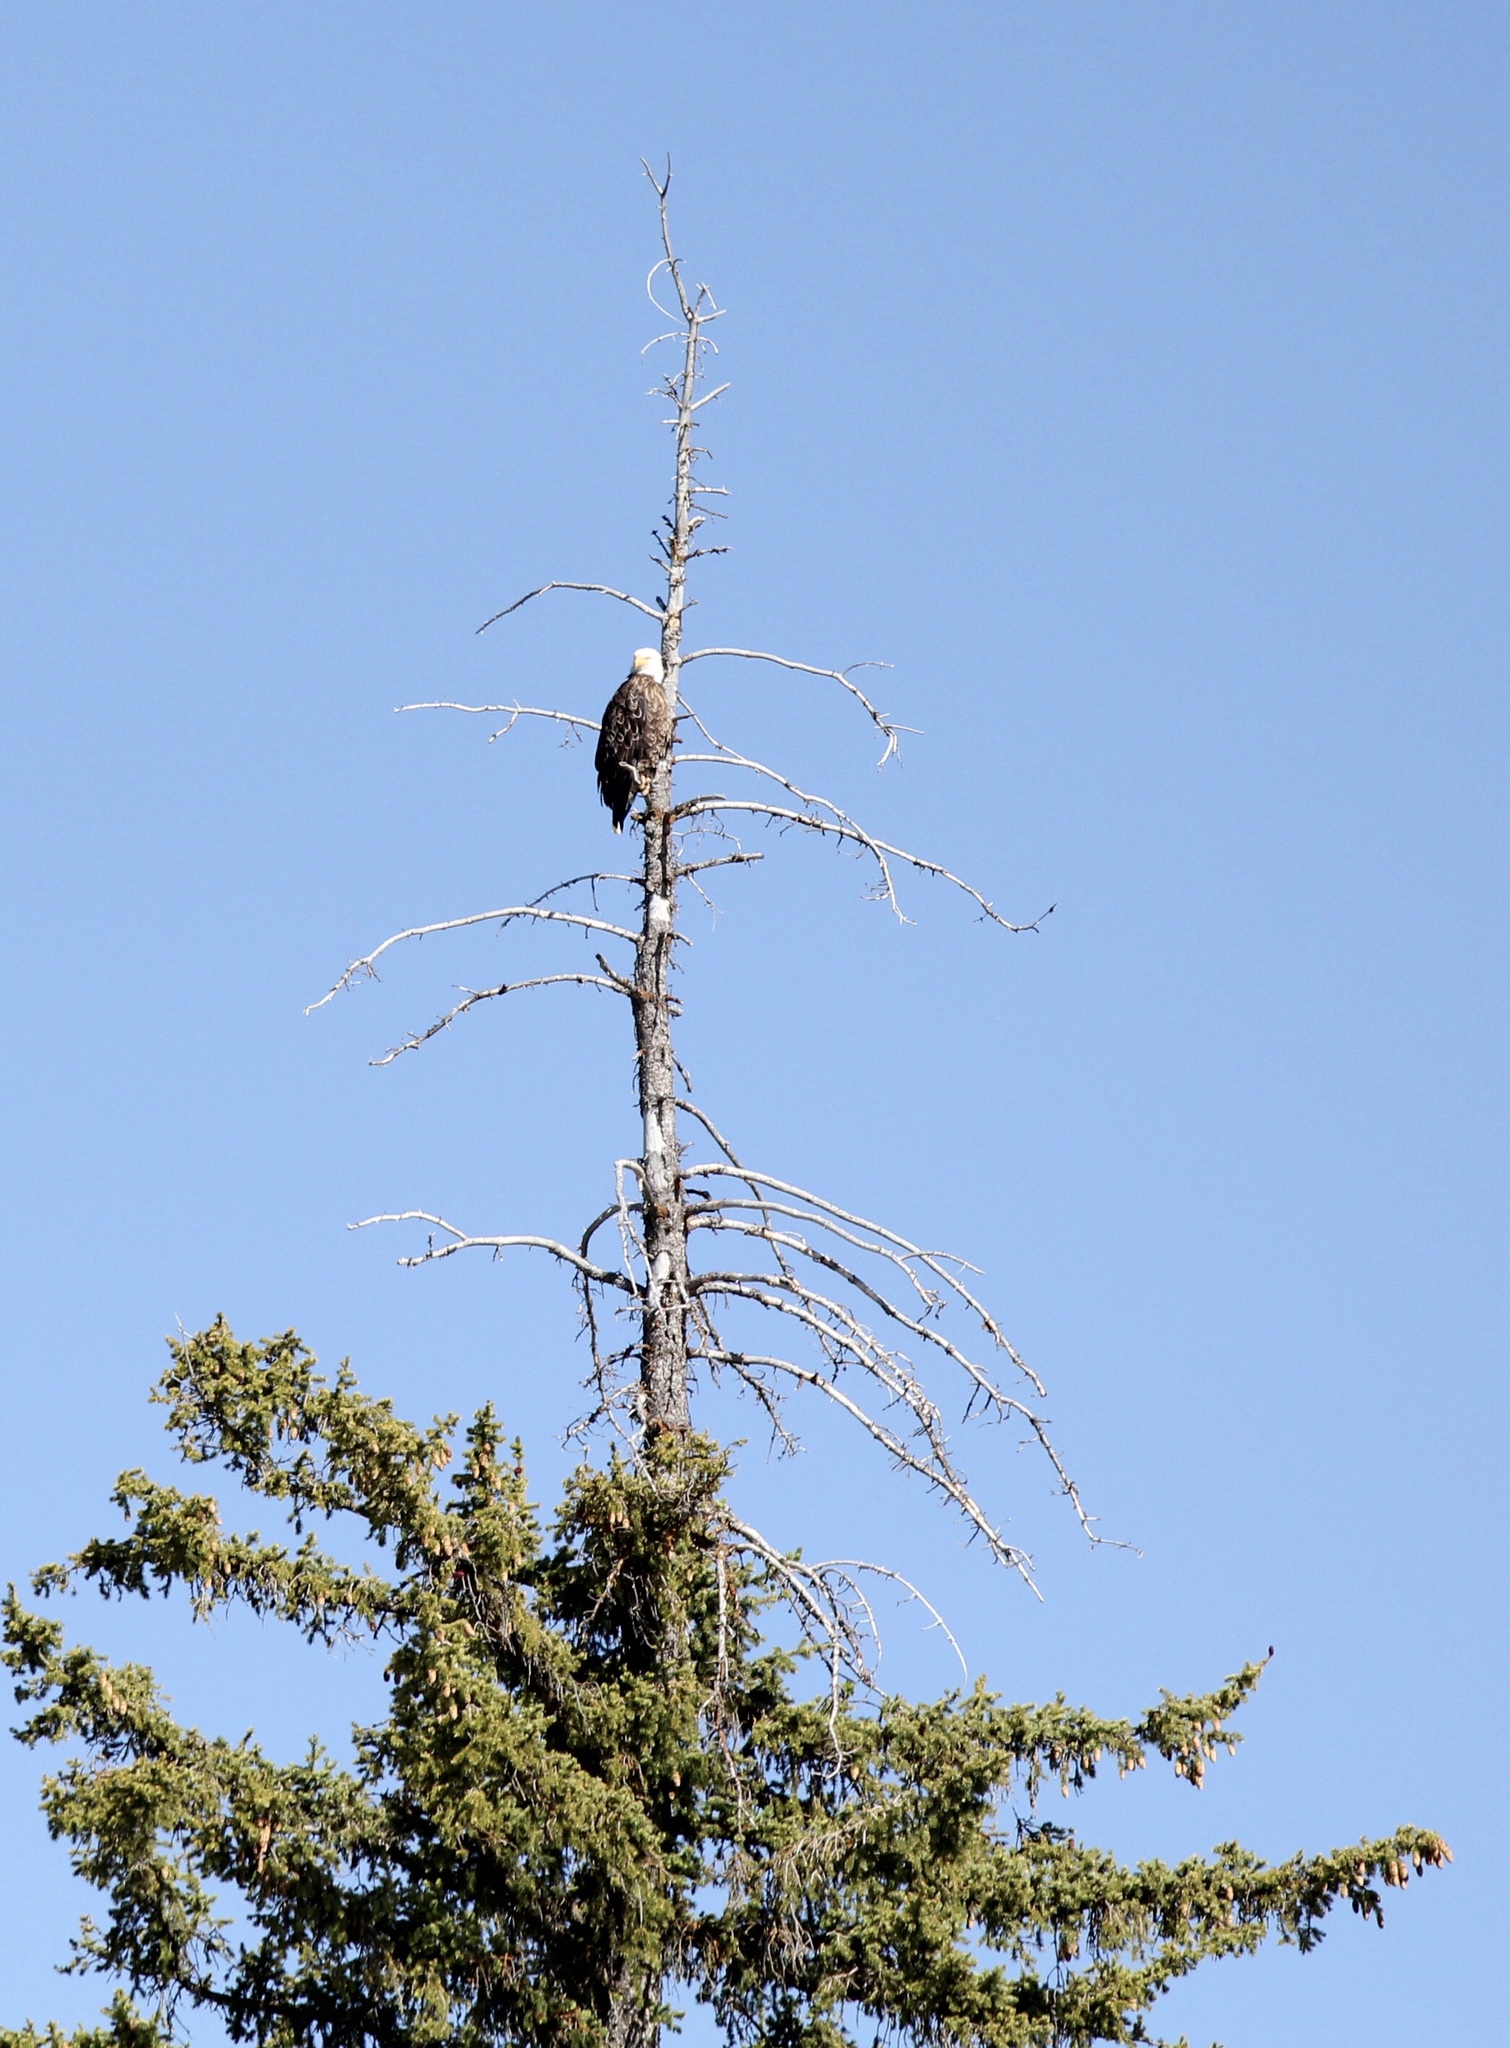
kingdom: Animalia
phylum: Chordata
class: Aves
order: Accipitriformes
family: Accipitridae
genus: Haliaeetus
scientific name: Haliaeetus leucocephalus
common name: Bald eagle
